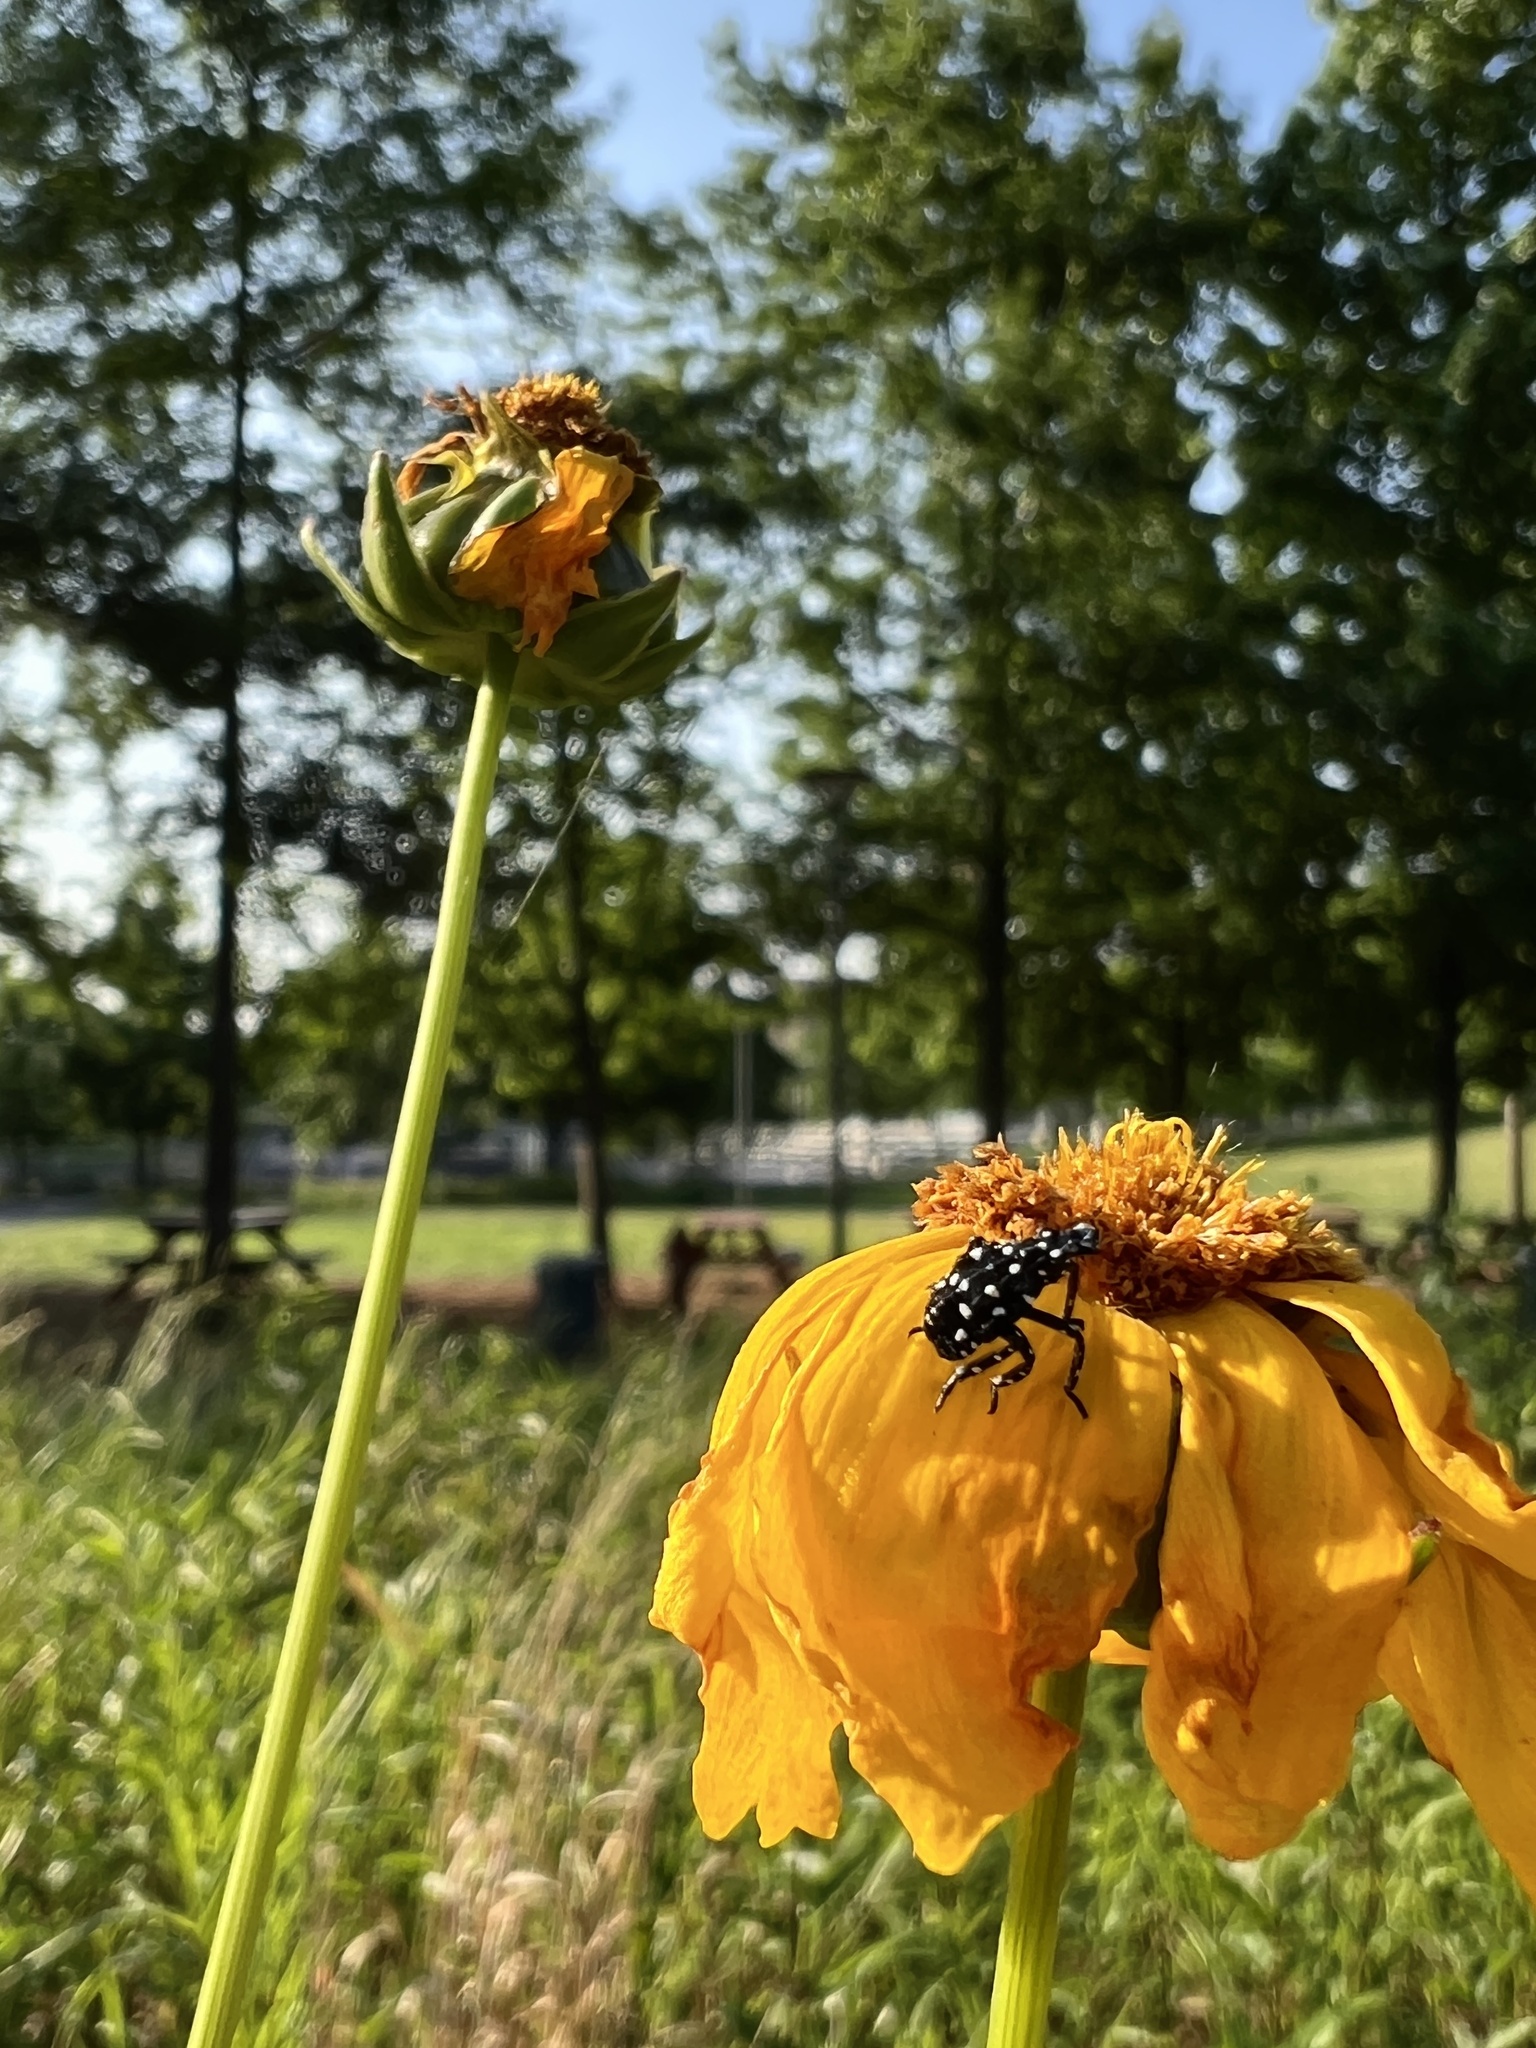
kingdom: Animalia
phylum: Arthropoda
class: Insecta
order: Hemiptera
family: Fulgoridae
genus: Lycorma
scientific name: Lycorma delicatula
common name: Spotted lanternfly
